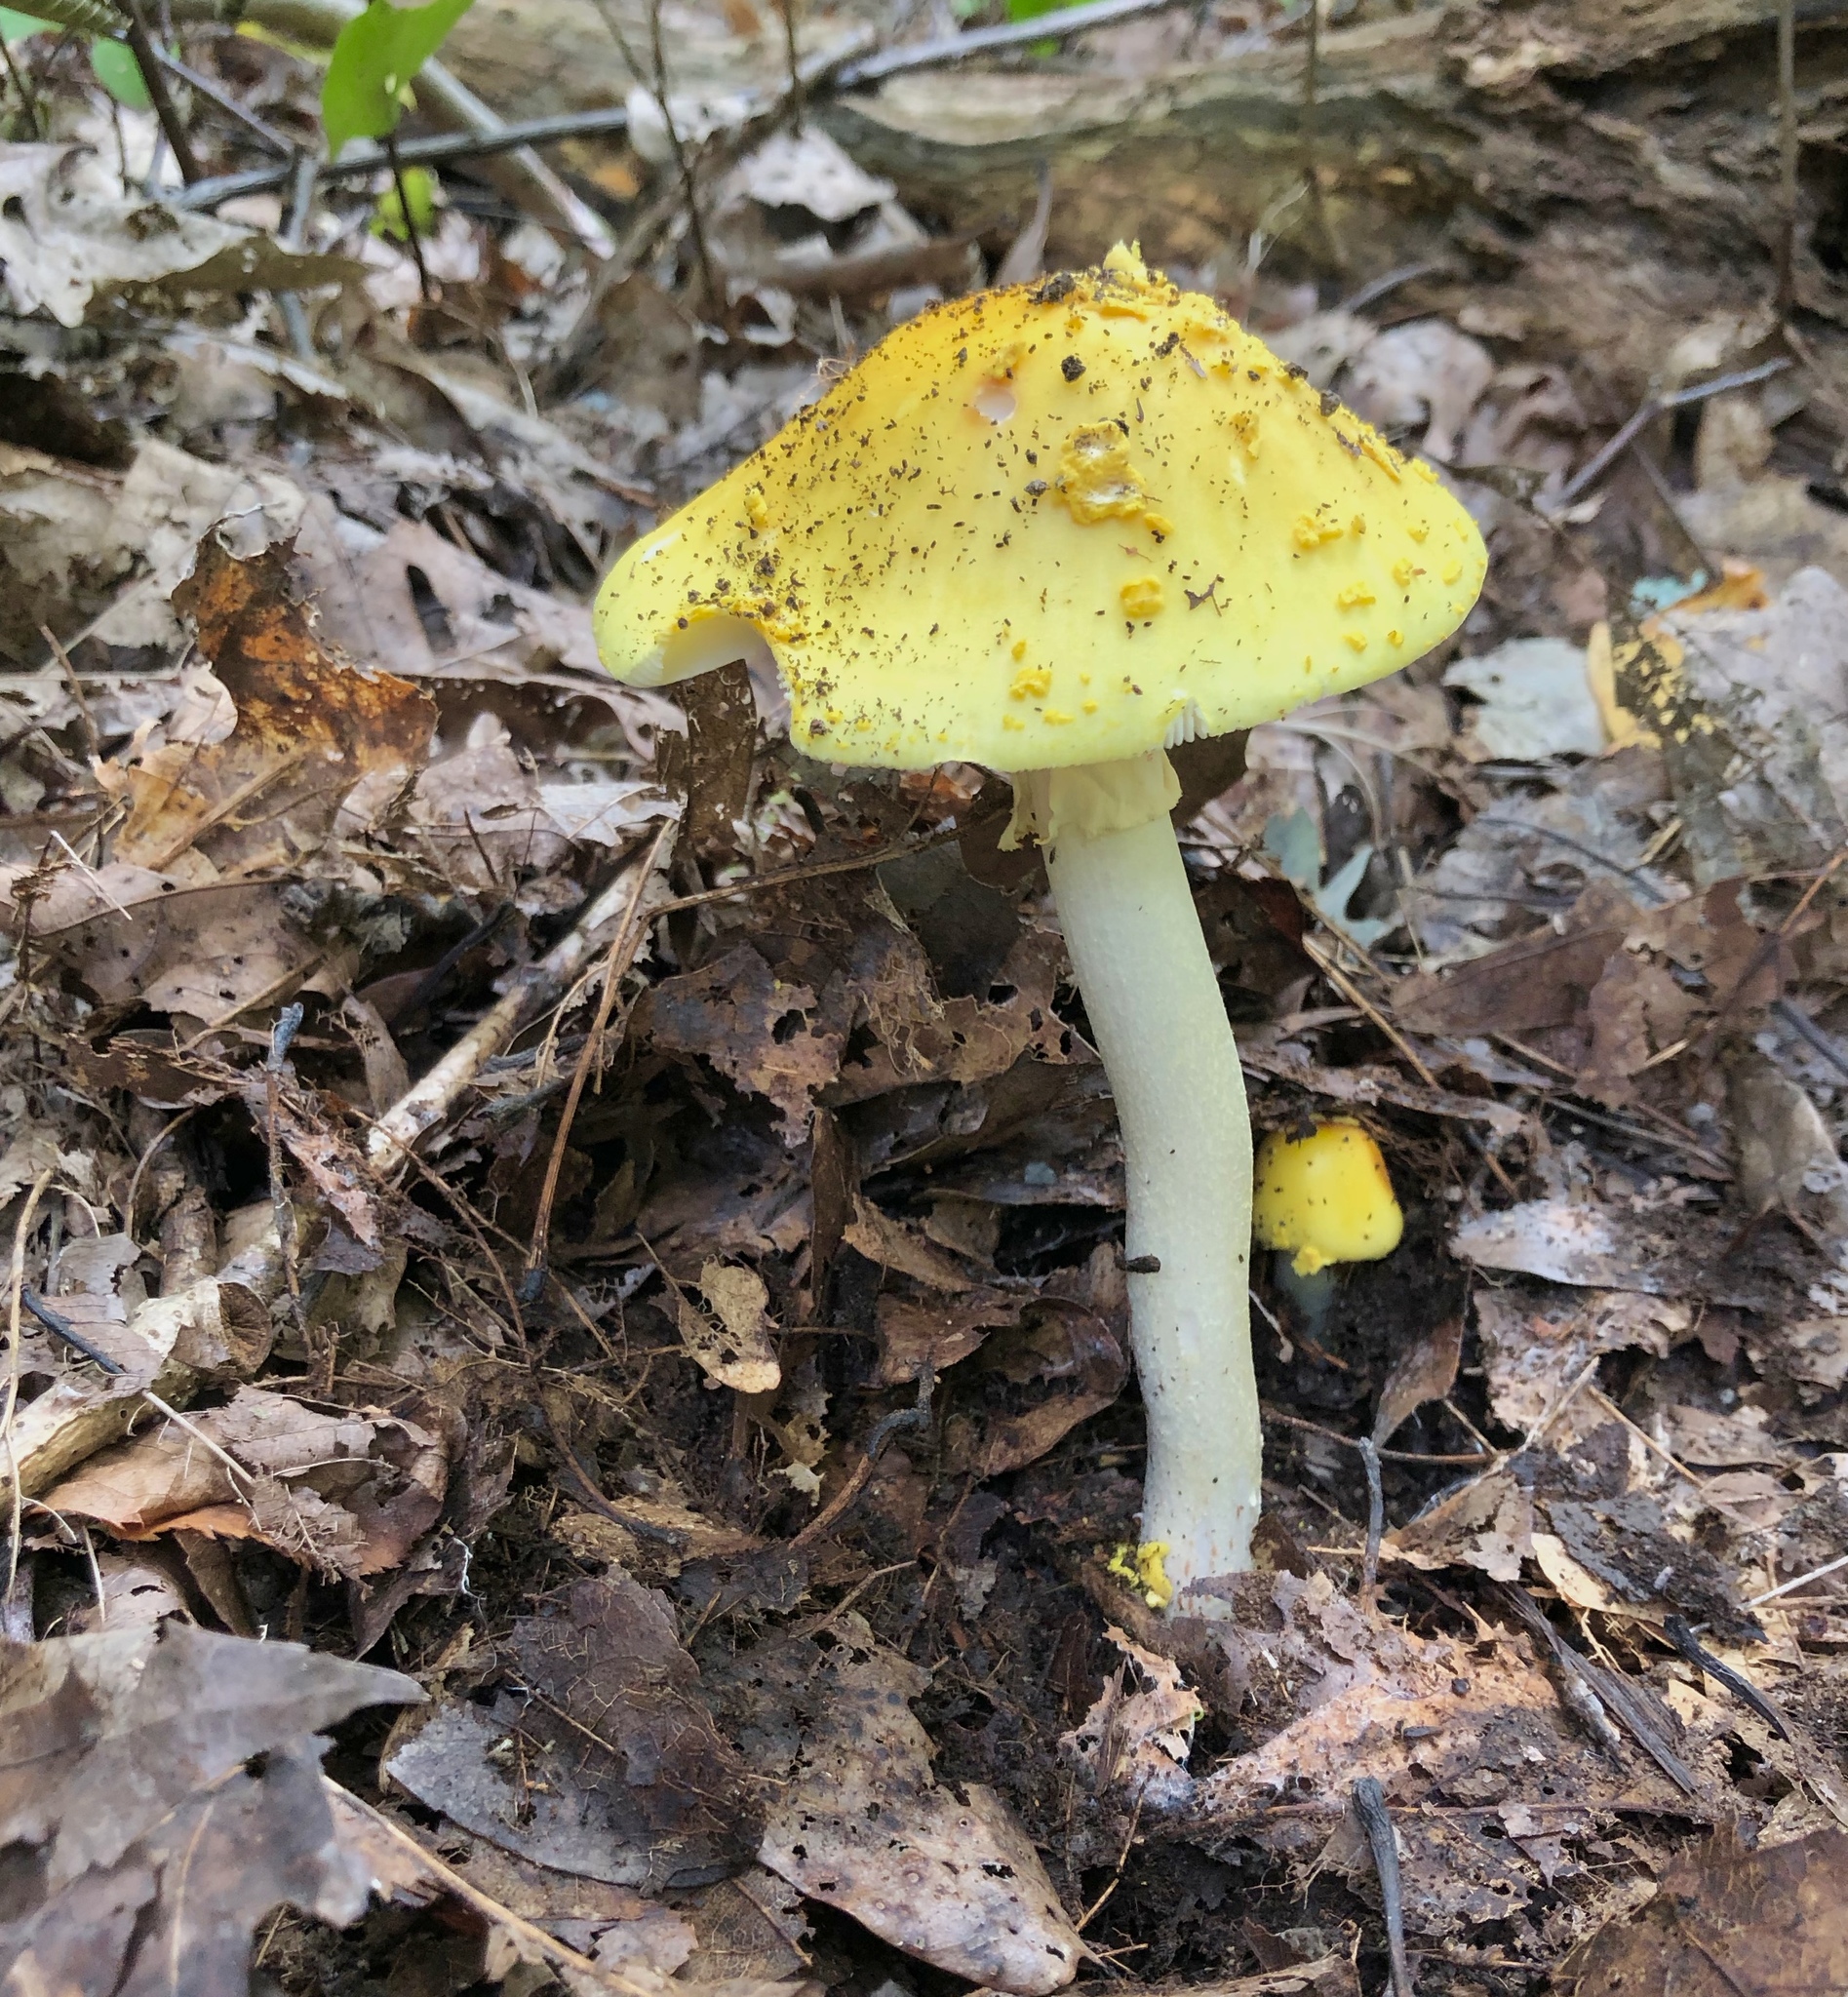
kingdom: Fungi
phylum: Basidiomycota
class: Agaricomycetes
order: Agaricales
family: Amanitaceae
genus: Amanita
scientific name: Amanita flavorubens
